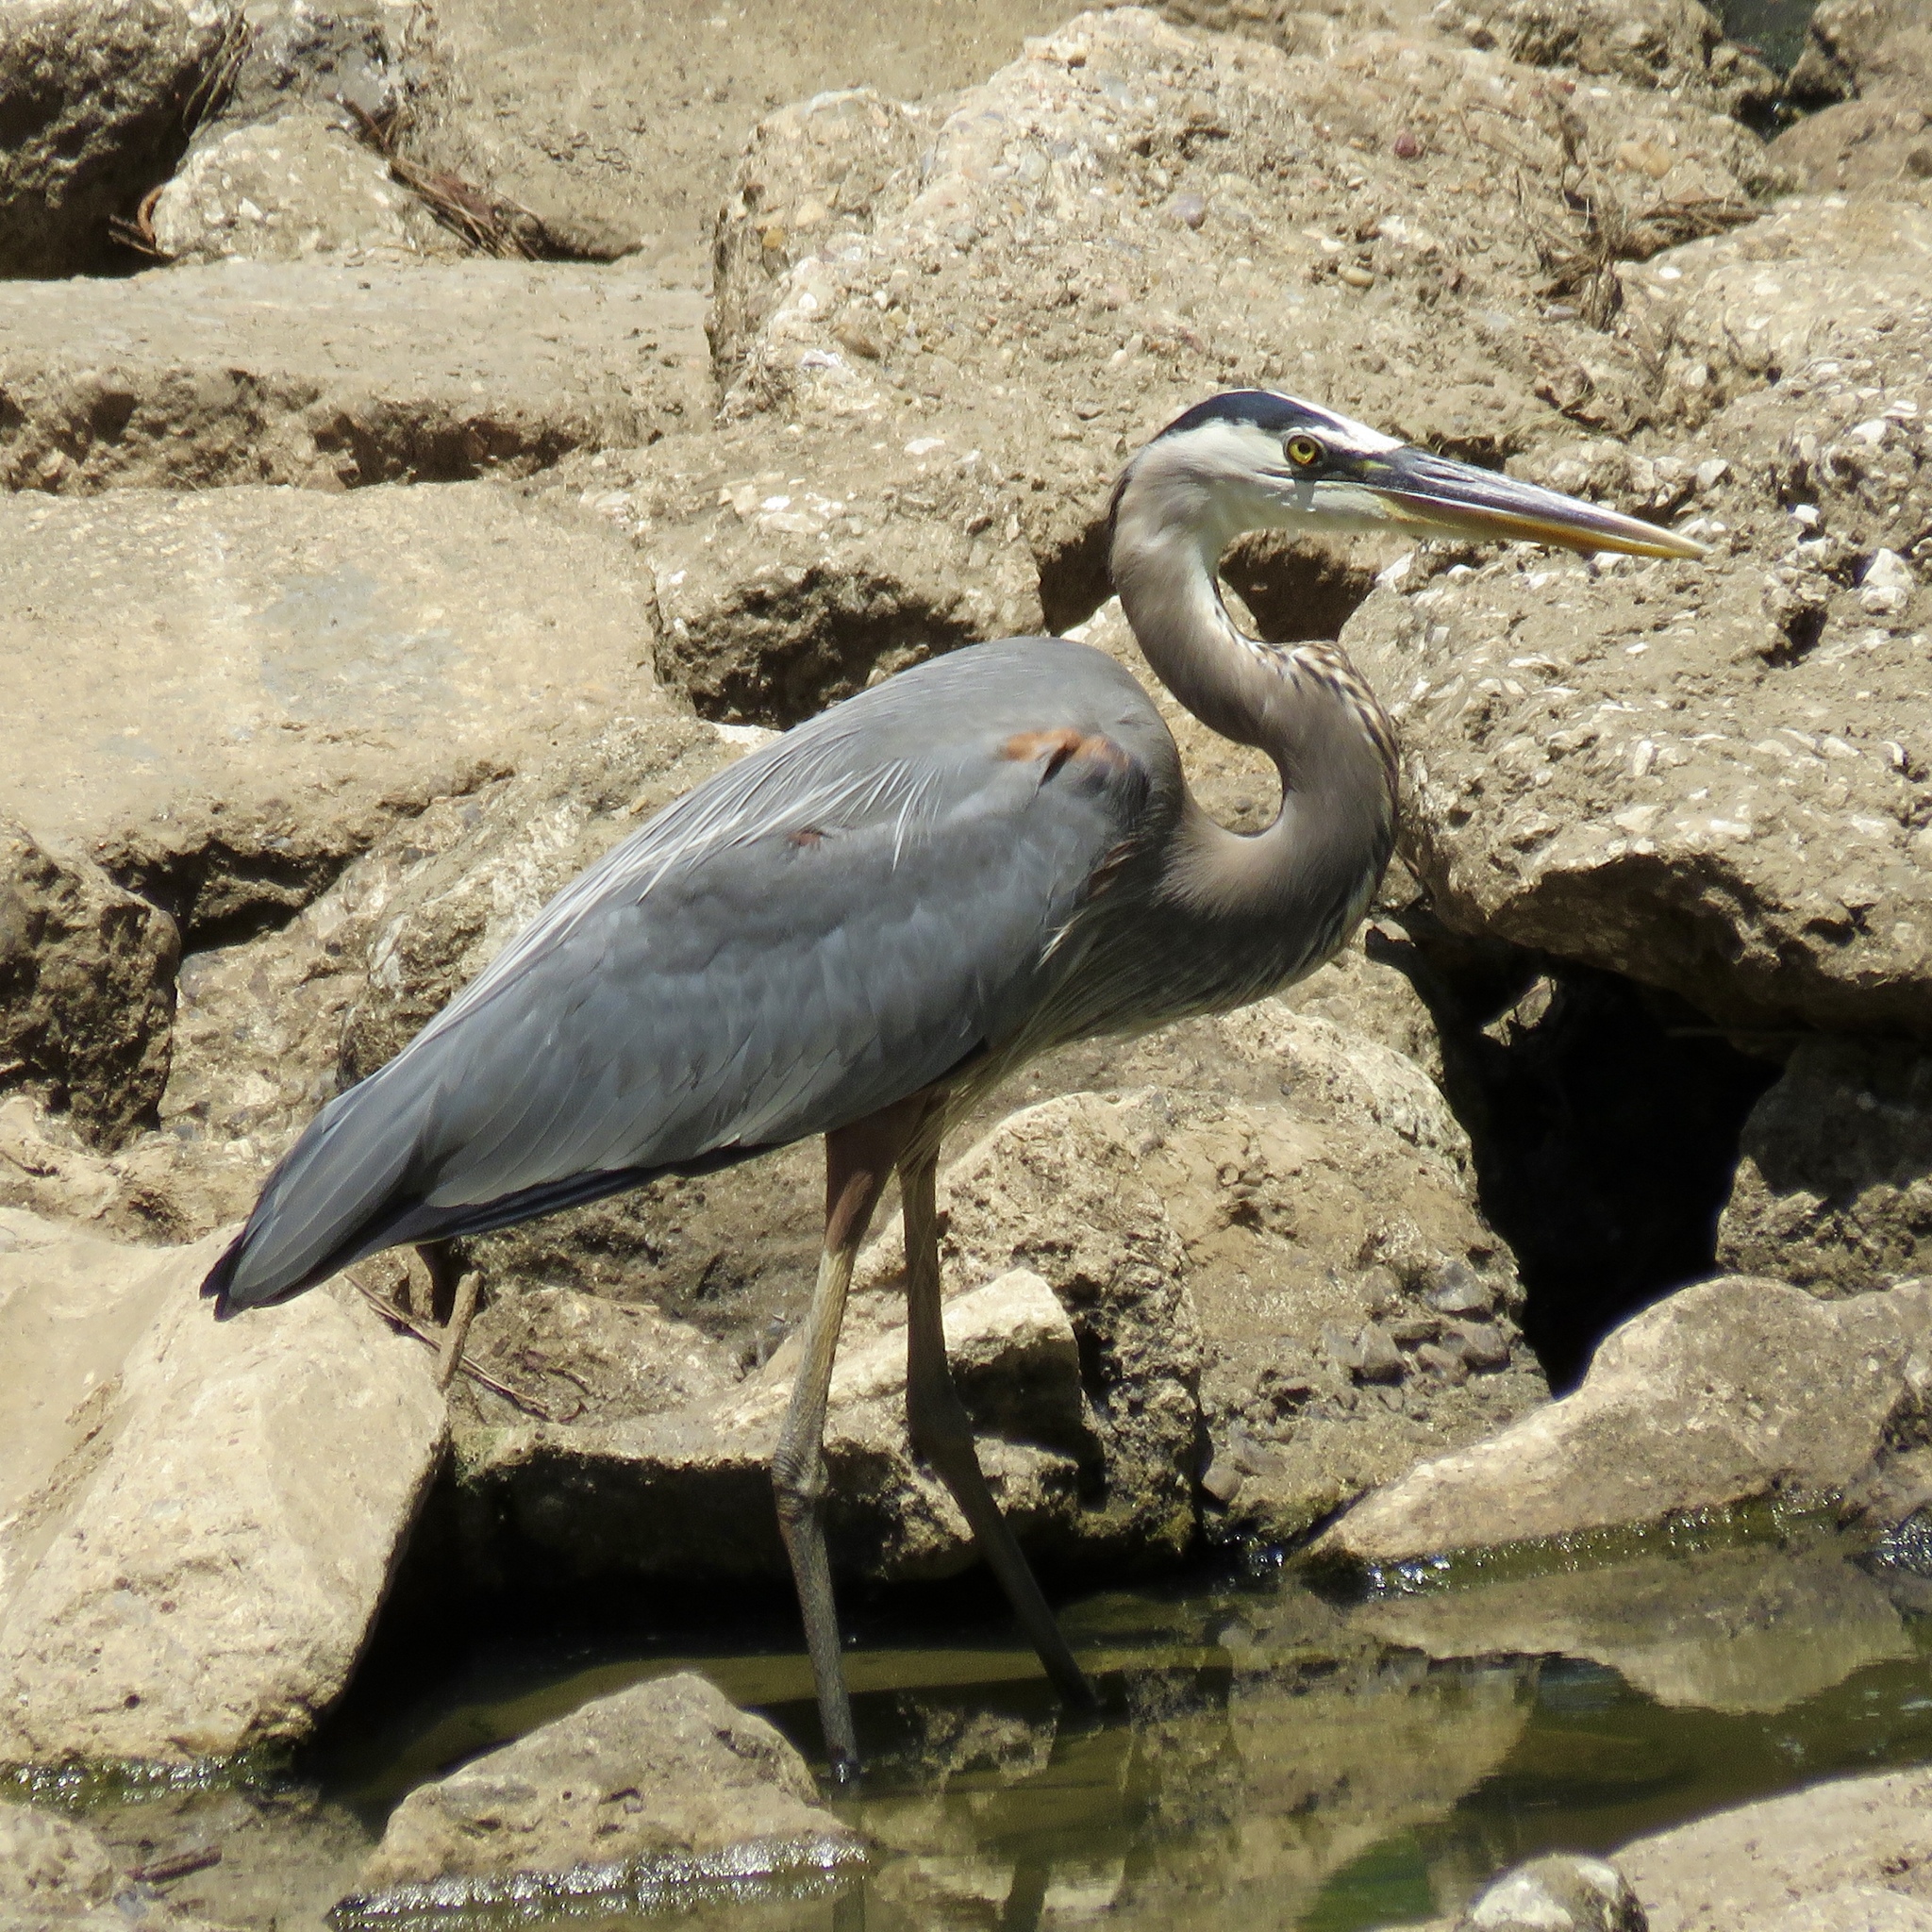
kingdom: Animalia
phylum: Chordata
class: Aves
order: Pelecaniformes
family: Ardeidae
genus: Ardea
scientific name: Ardea herodias
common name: Great blue heron
